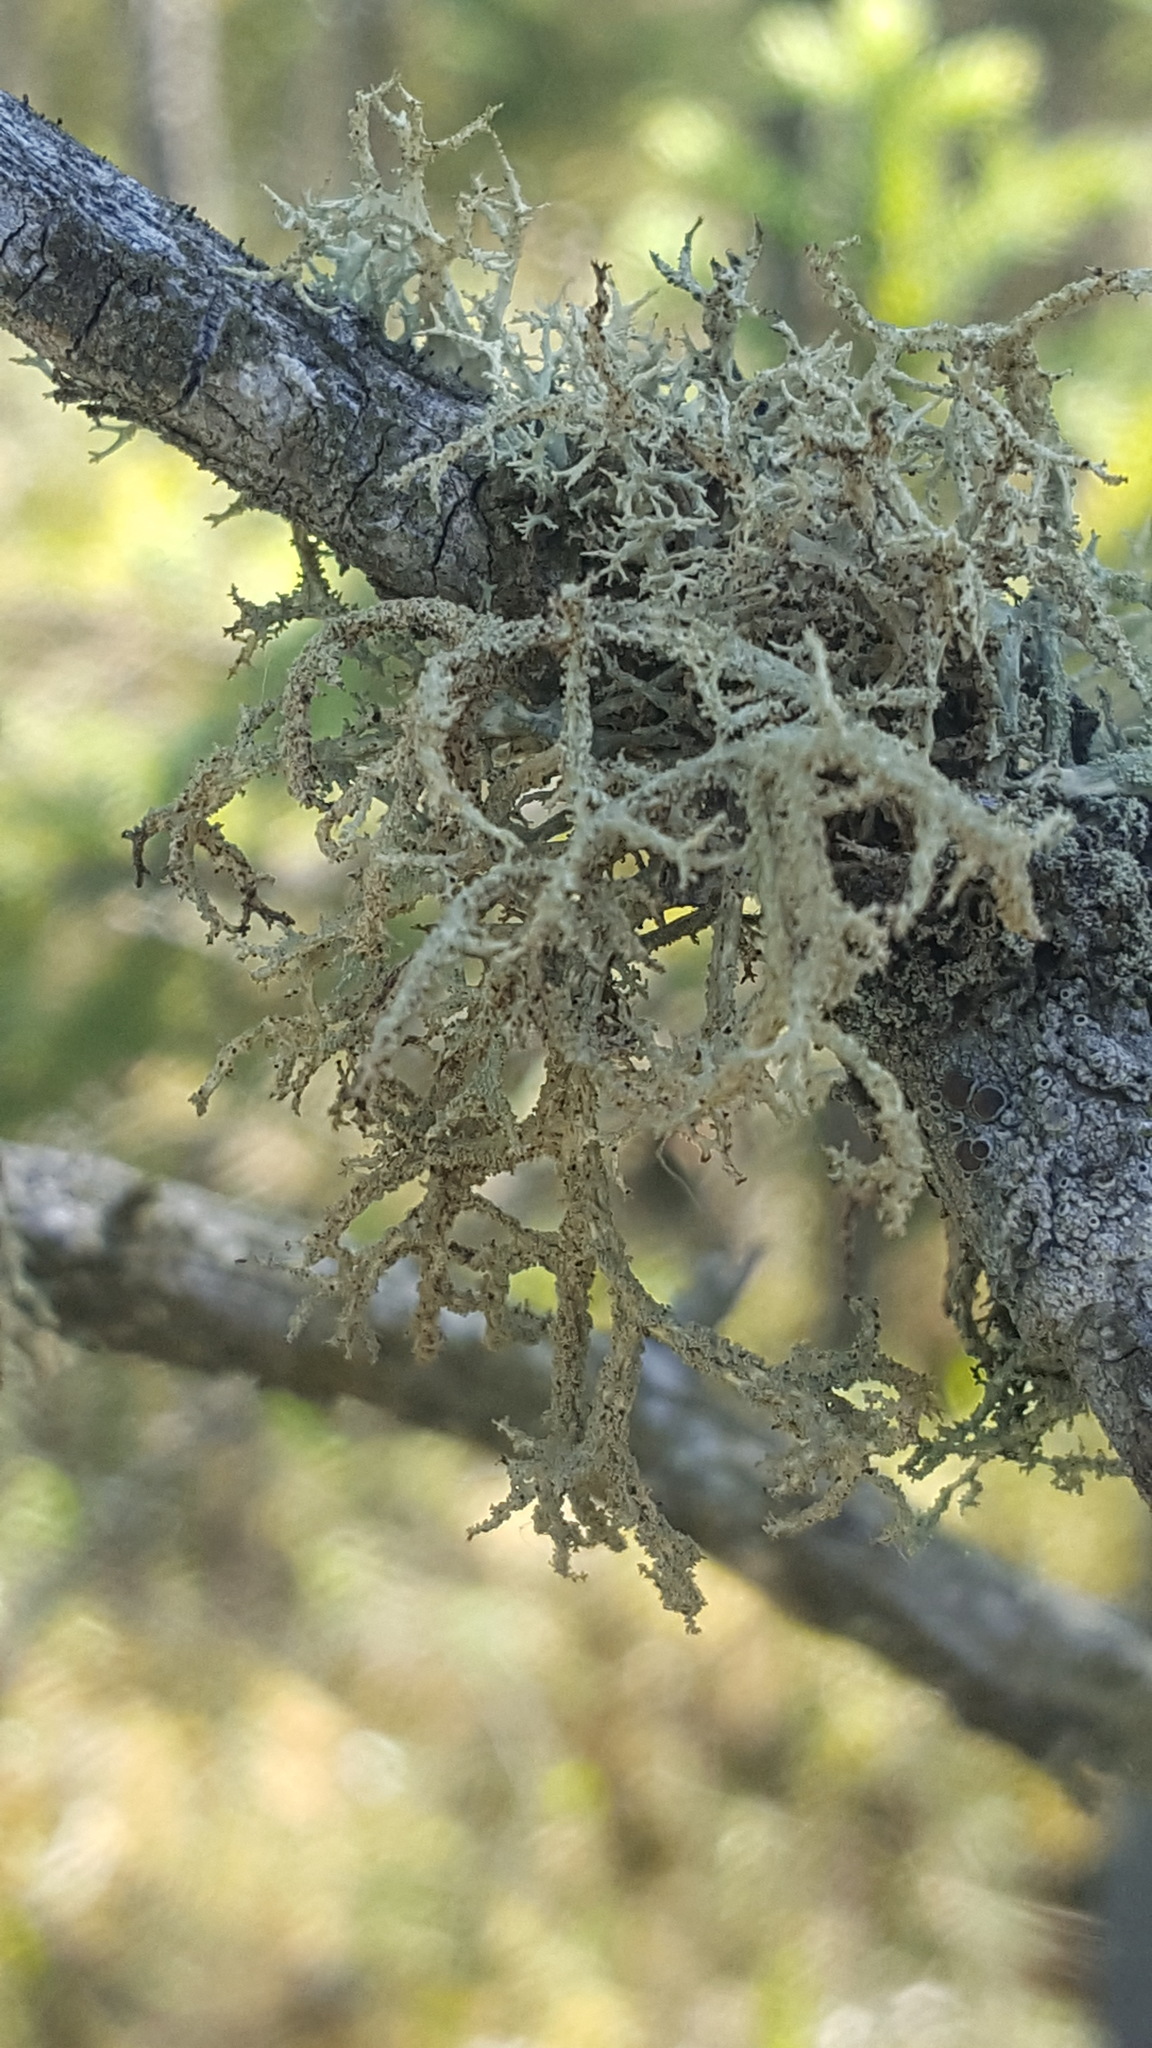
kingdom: Fungi
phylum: Ascomycota
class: Lecanoromycetes
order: Lecanorales
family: Parmeliaceae
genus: Evernia
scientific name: Evernia mesomorpha
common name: Boreal oak moss lichen
